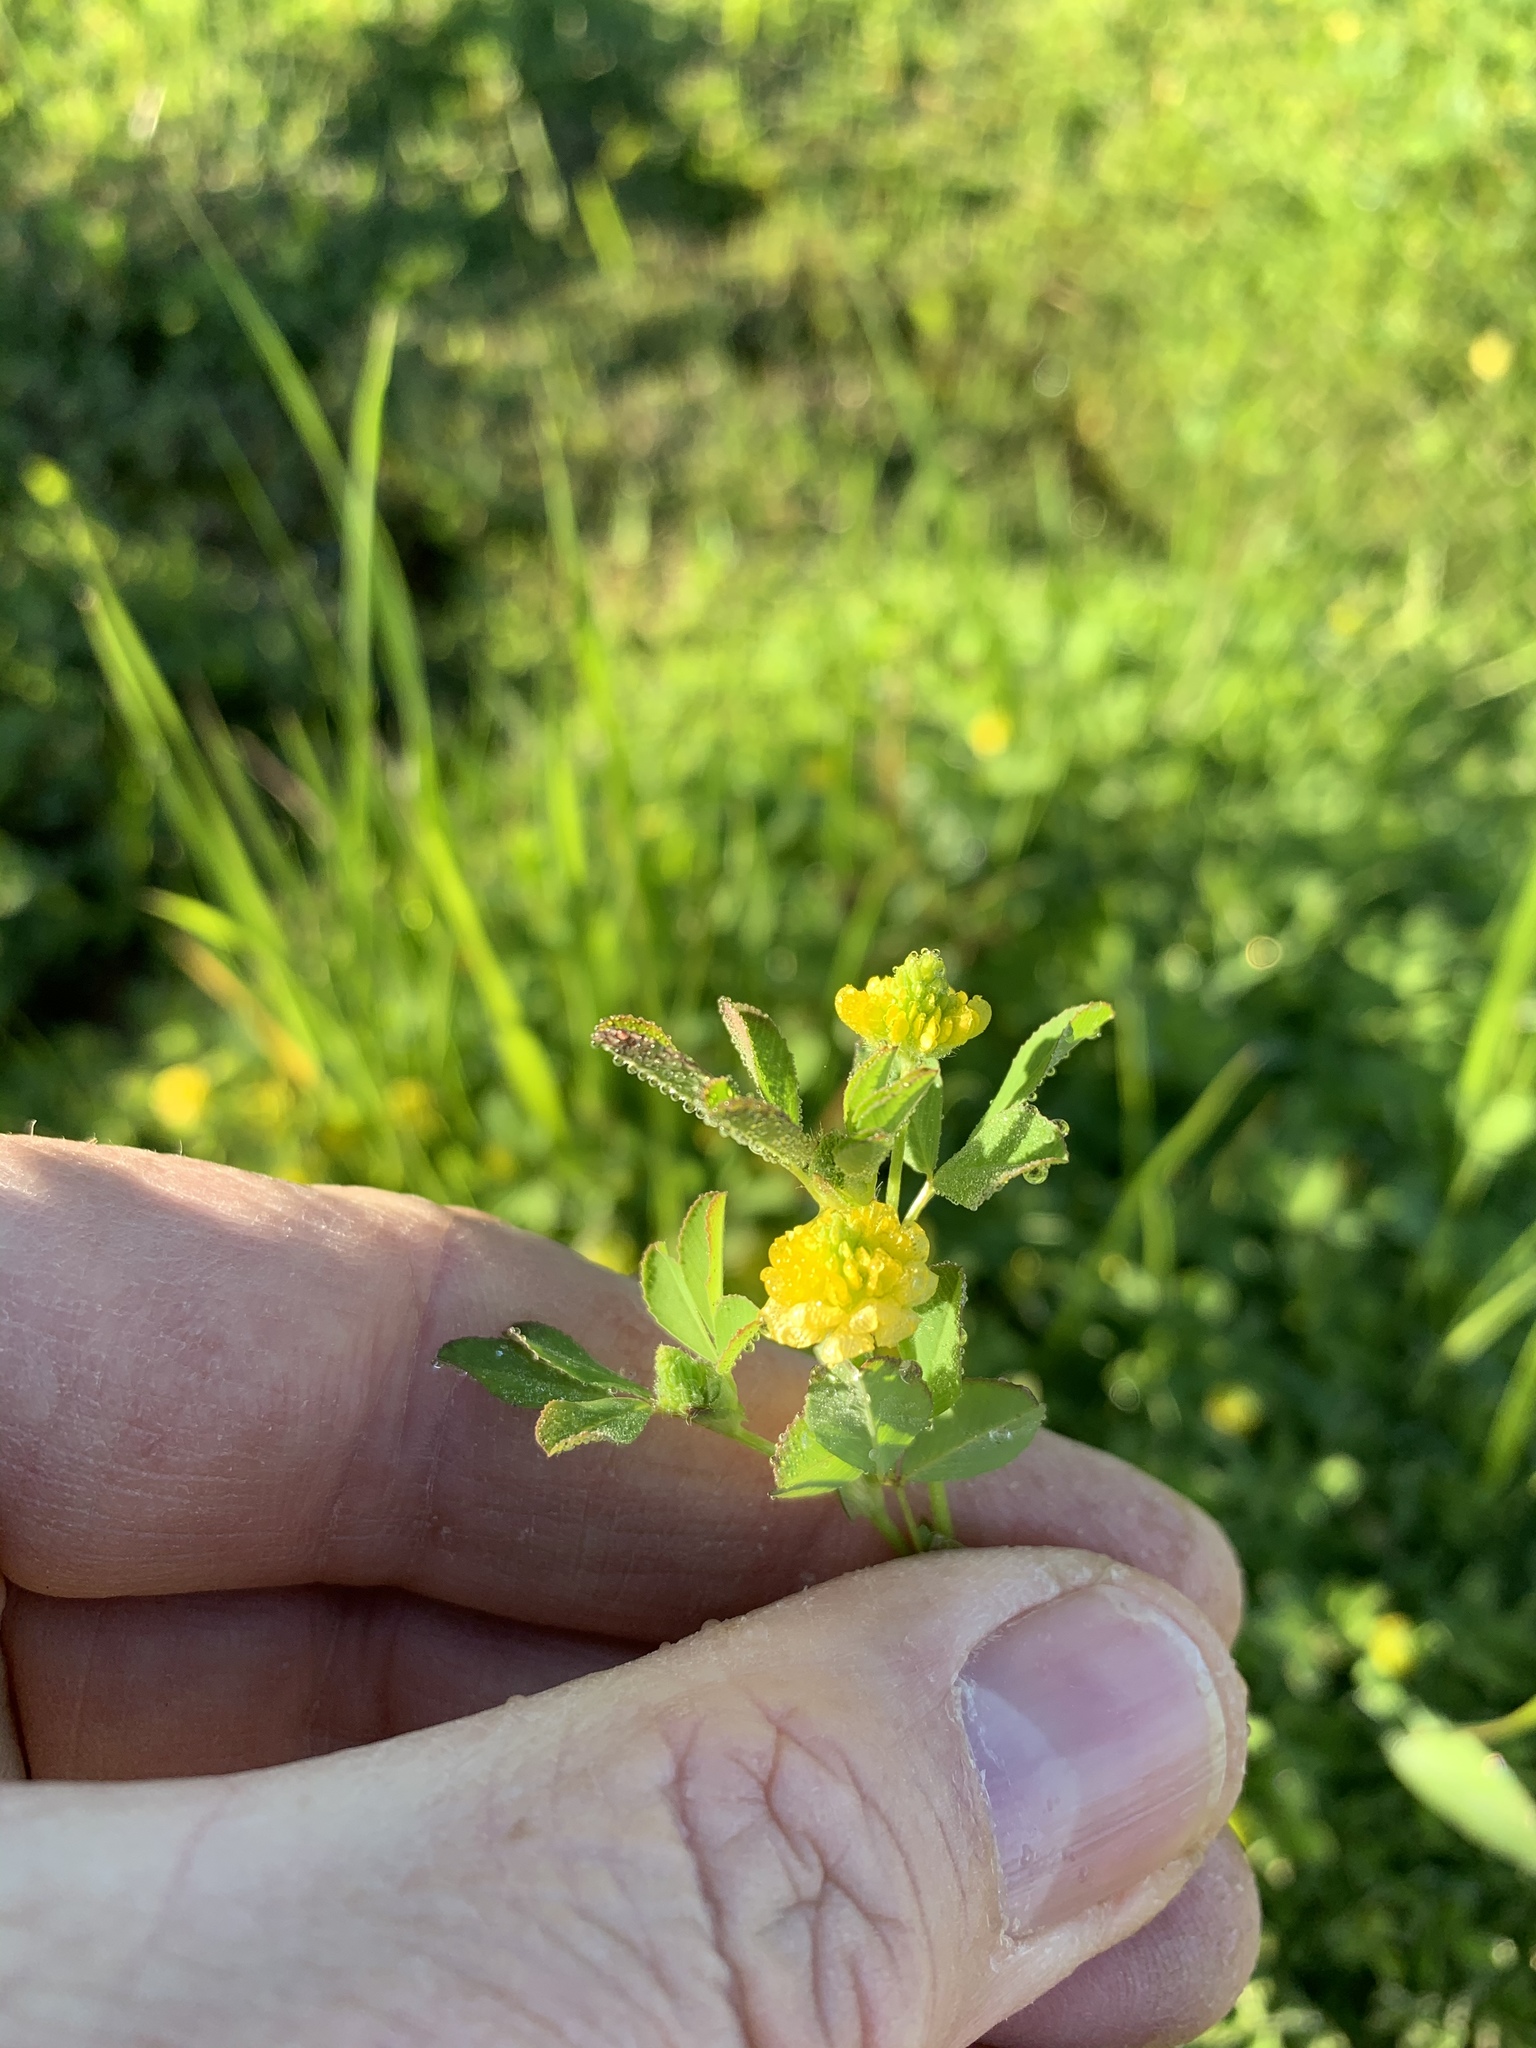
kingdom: Plantae
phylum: Tracheophyta
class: Magnoliopsida
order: Fabales
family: Fabaceae
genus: Trifolium
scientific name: Trifolium campestre
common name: Field clover
